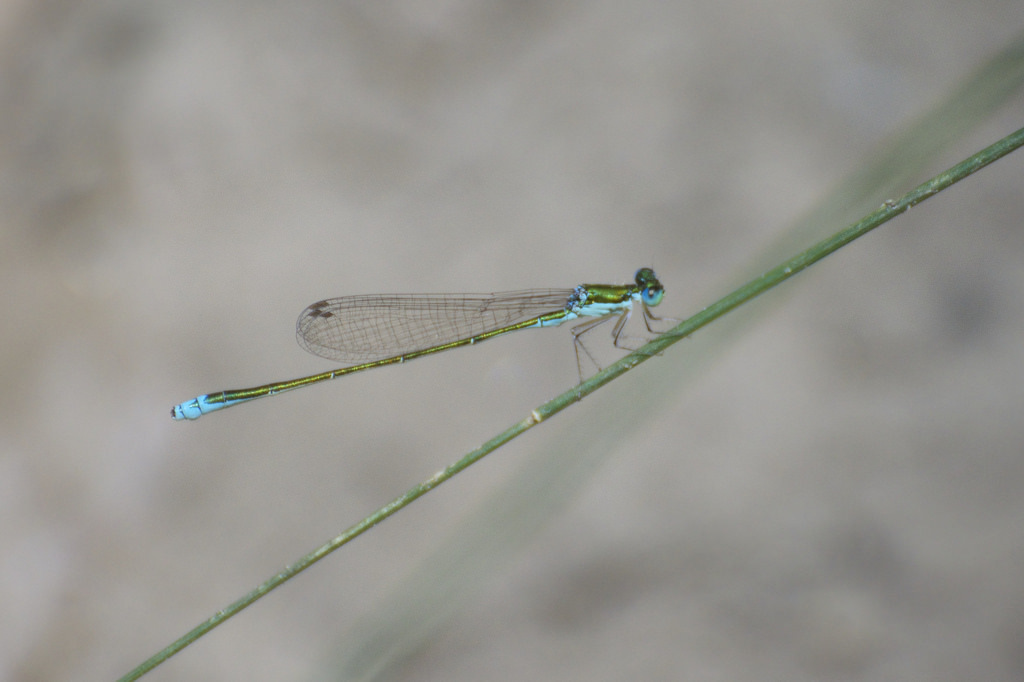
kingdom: Animalia
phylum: Arthropoda
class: Insecta
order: Odonata
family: Coenagrionidae
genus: Nehalennia
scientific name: Nehalennia irene
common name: Sedge sprite
